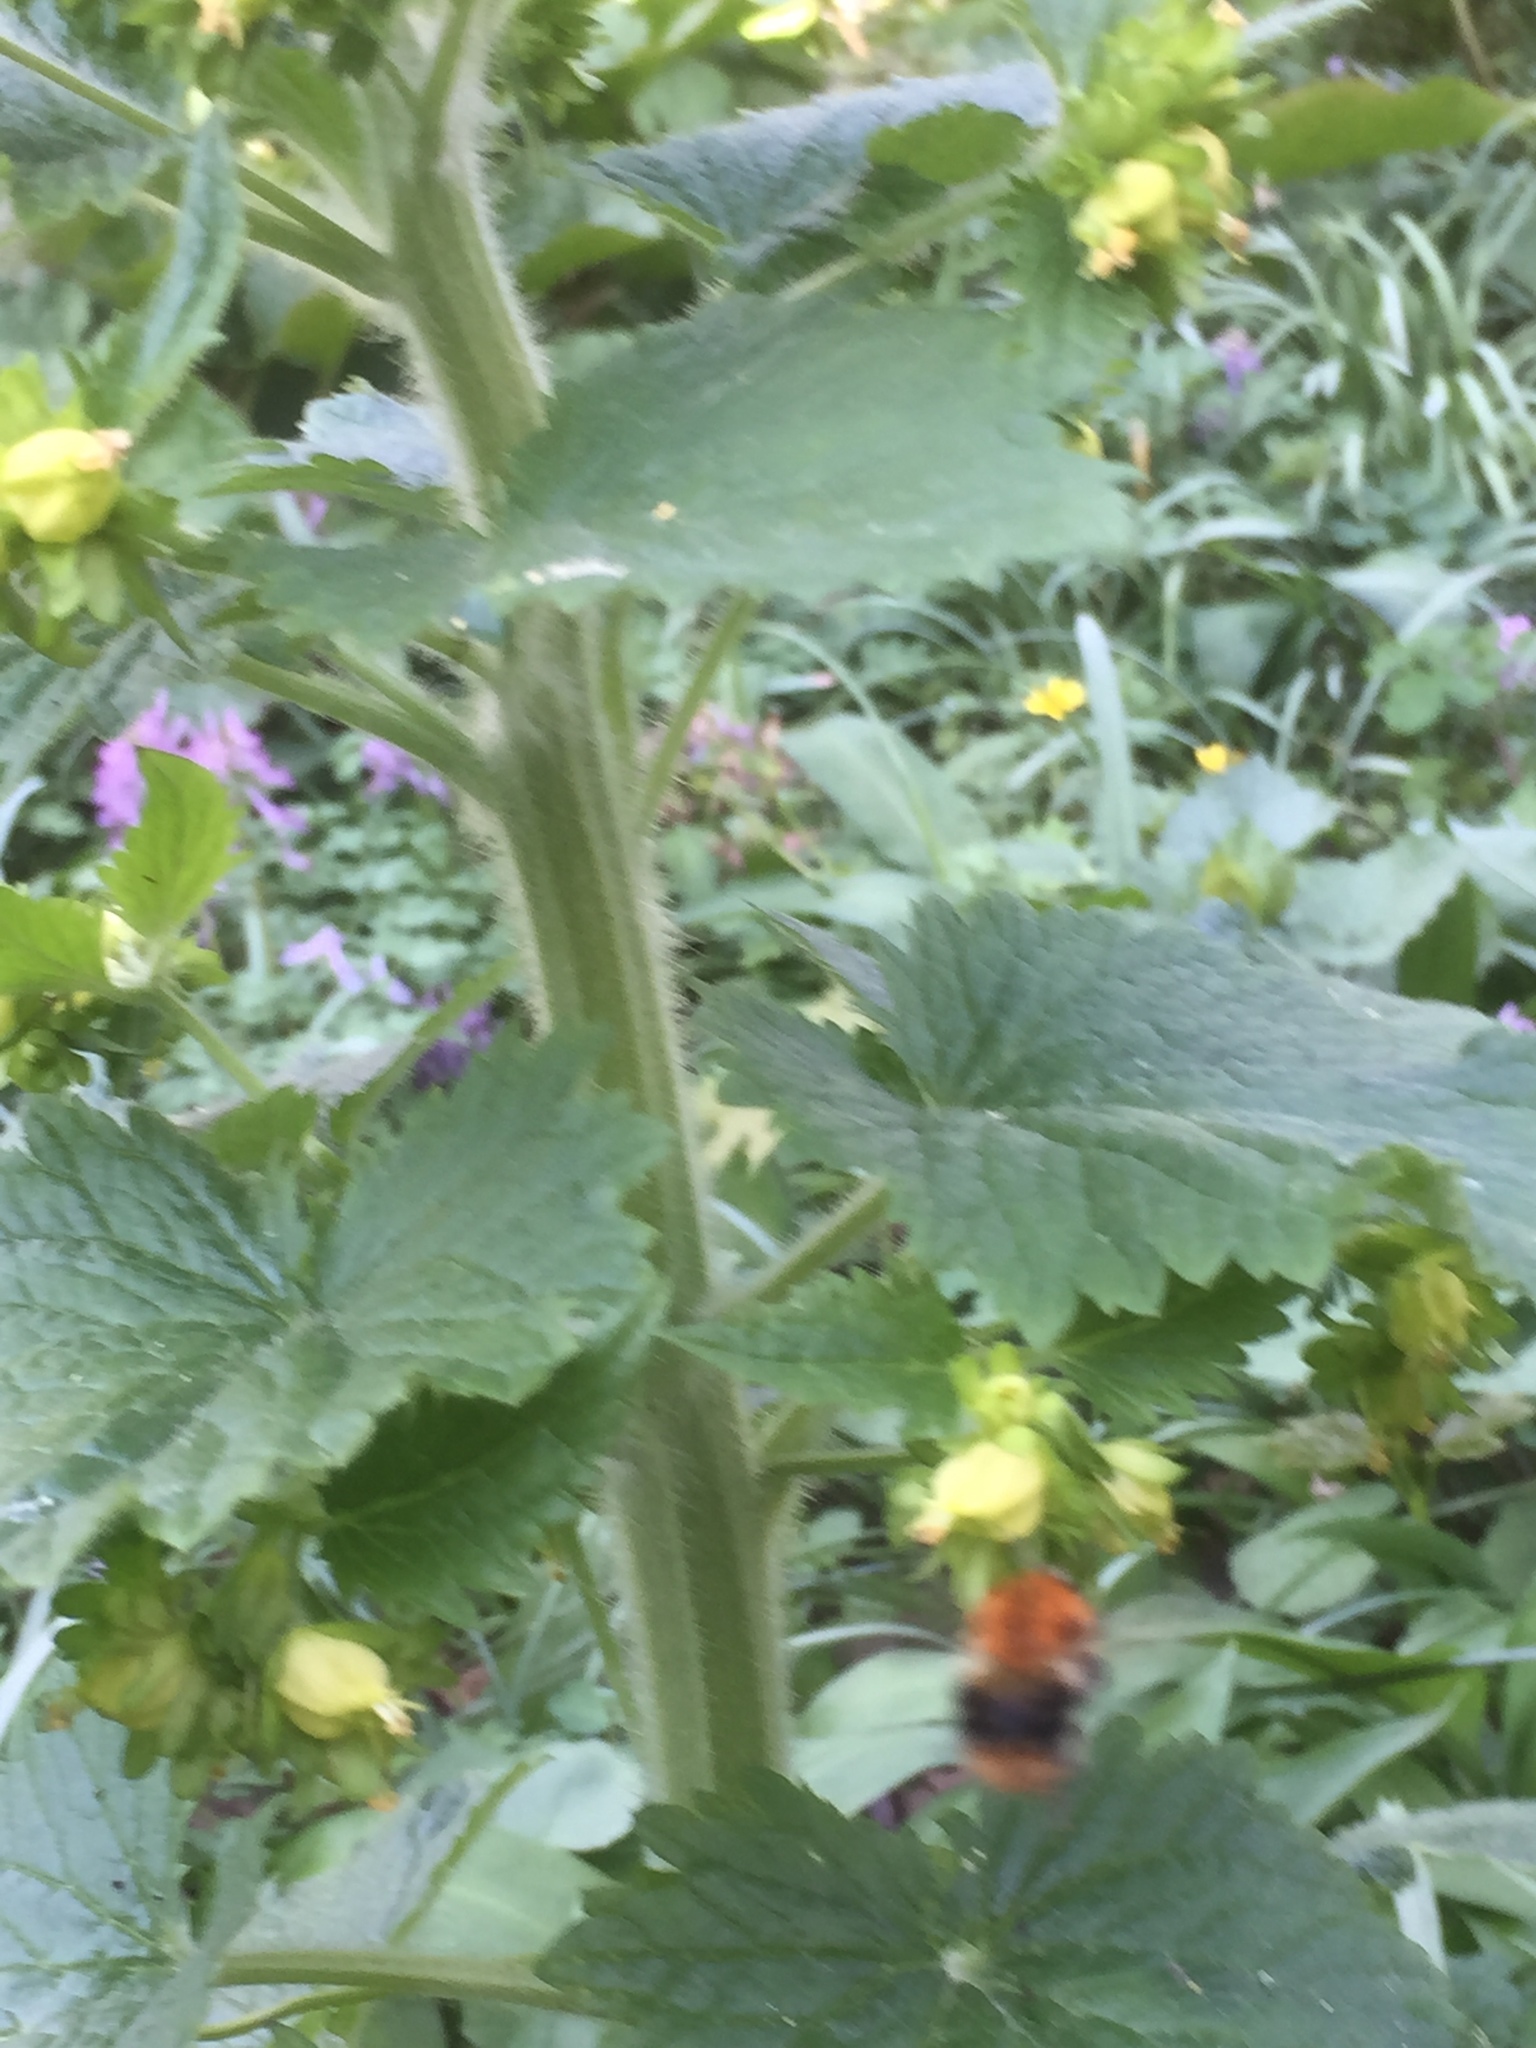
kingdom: Plantae
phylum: Tracheophyta
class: Magnoliopsida
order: Lamiales
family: Scrophulariaceae
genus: Scrophularia
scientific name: Scrophularia vernalis
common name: Yellow figwort
